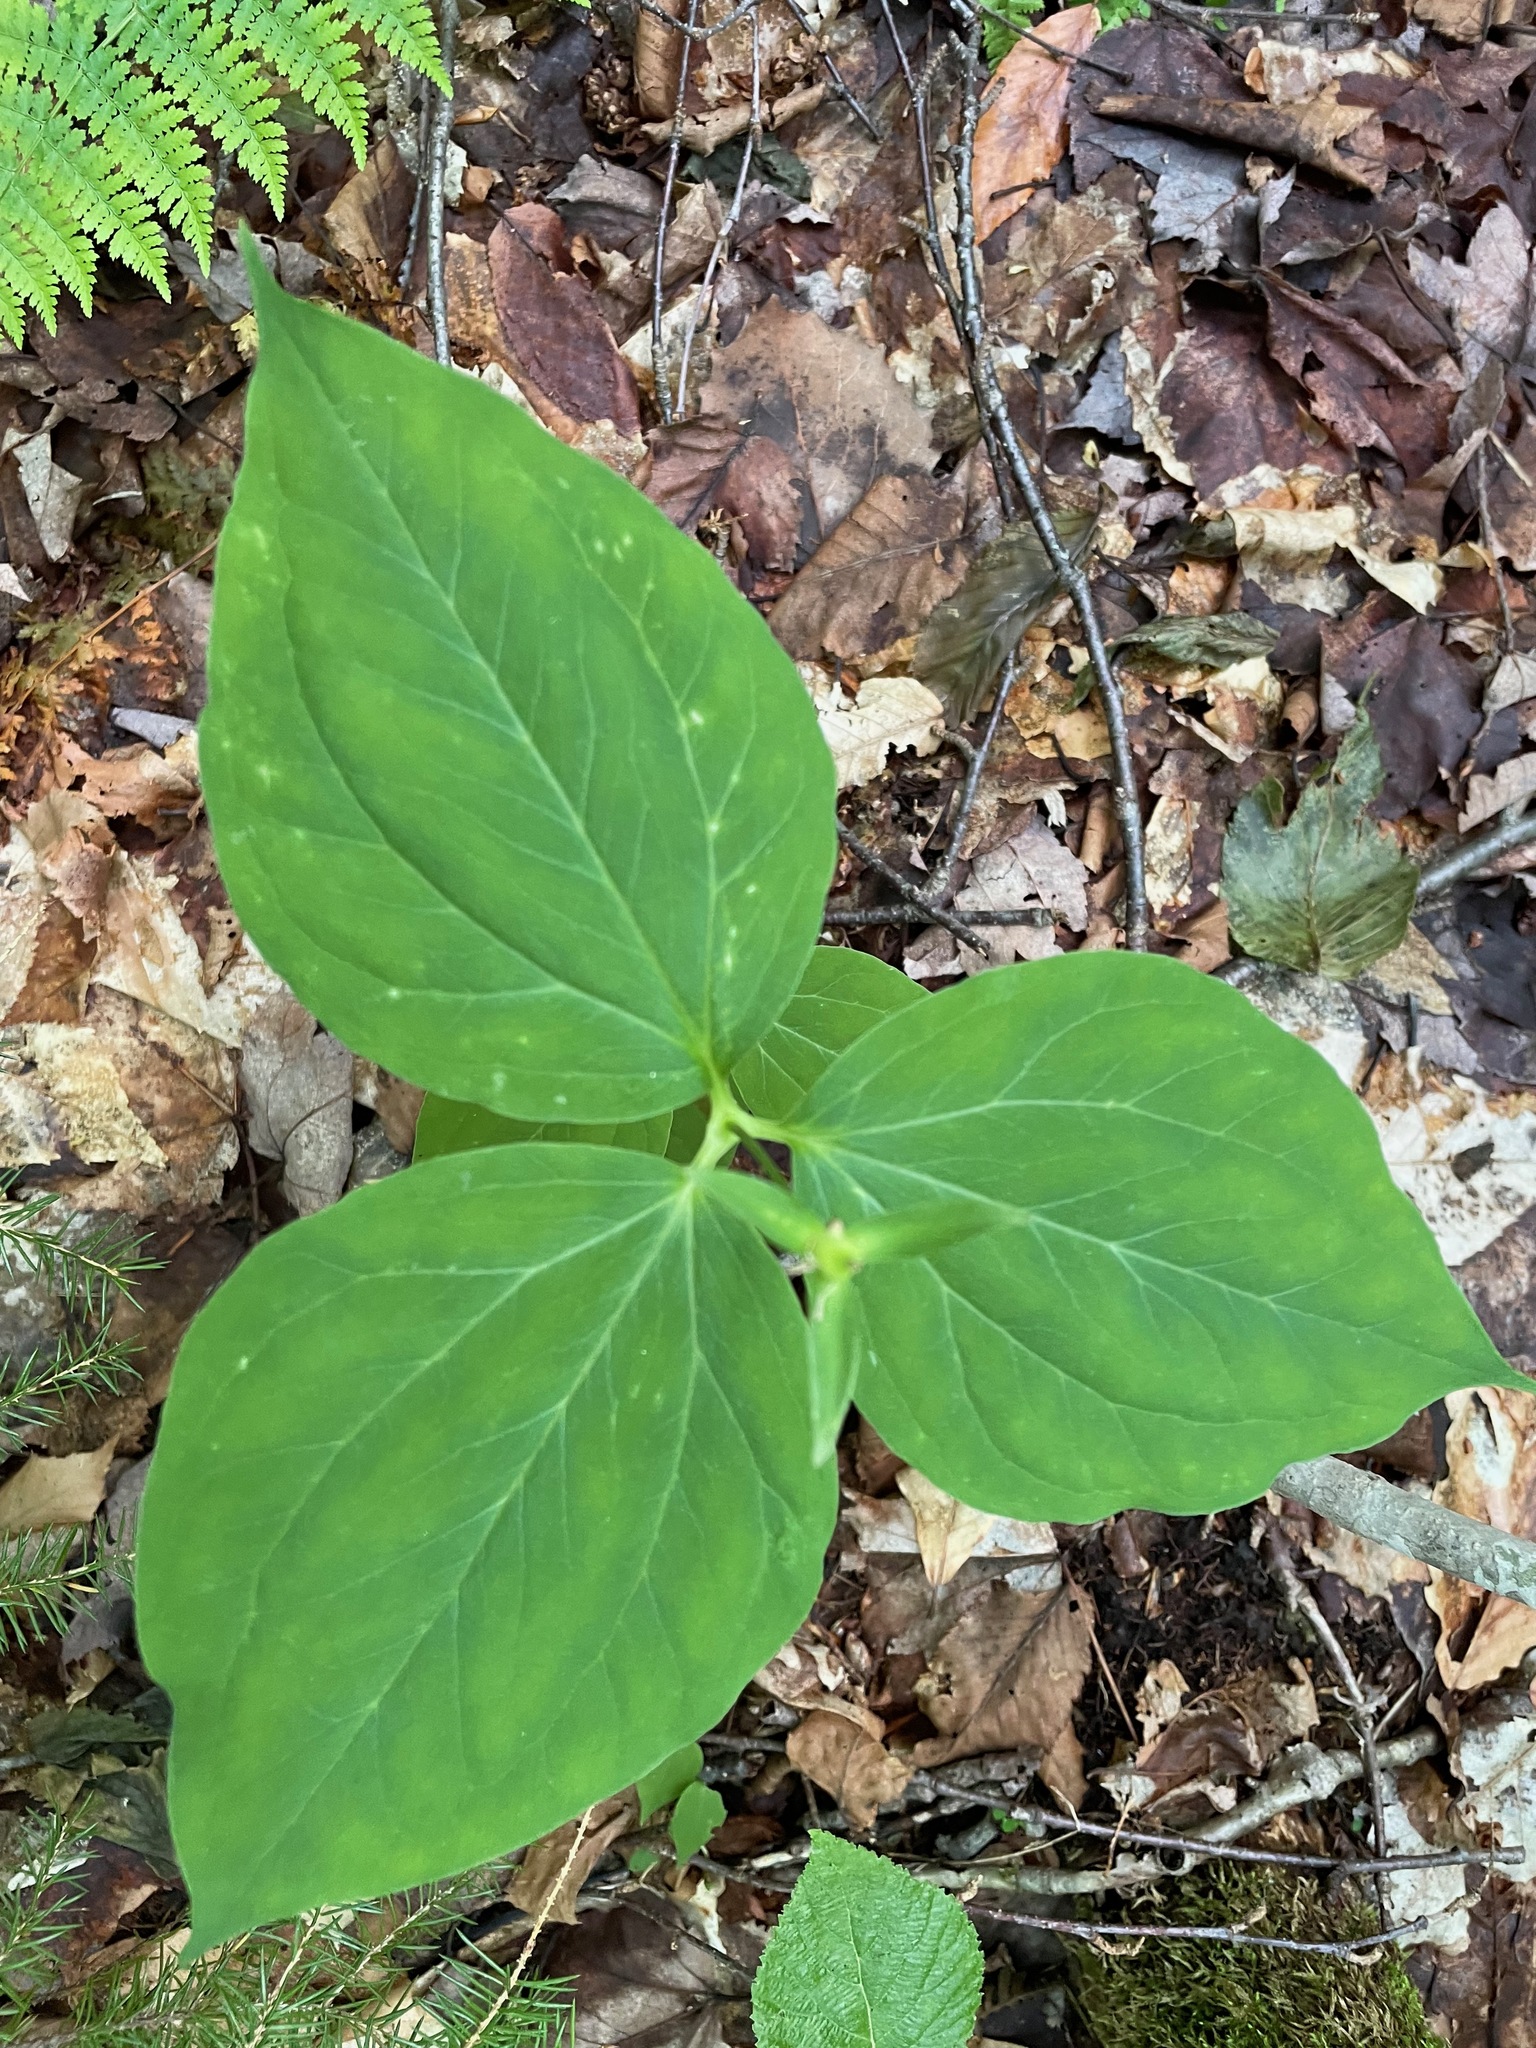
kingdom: Plantae
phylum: Tracheophyta
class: Liliopsida
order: Liliales
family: Melanthiaceae
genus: Trillium
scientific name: Trillium undulatum
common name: Paint trillium
